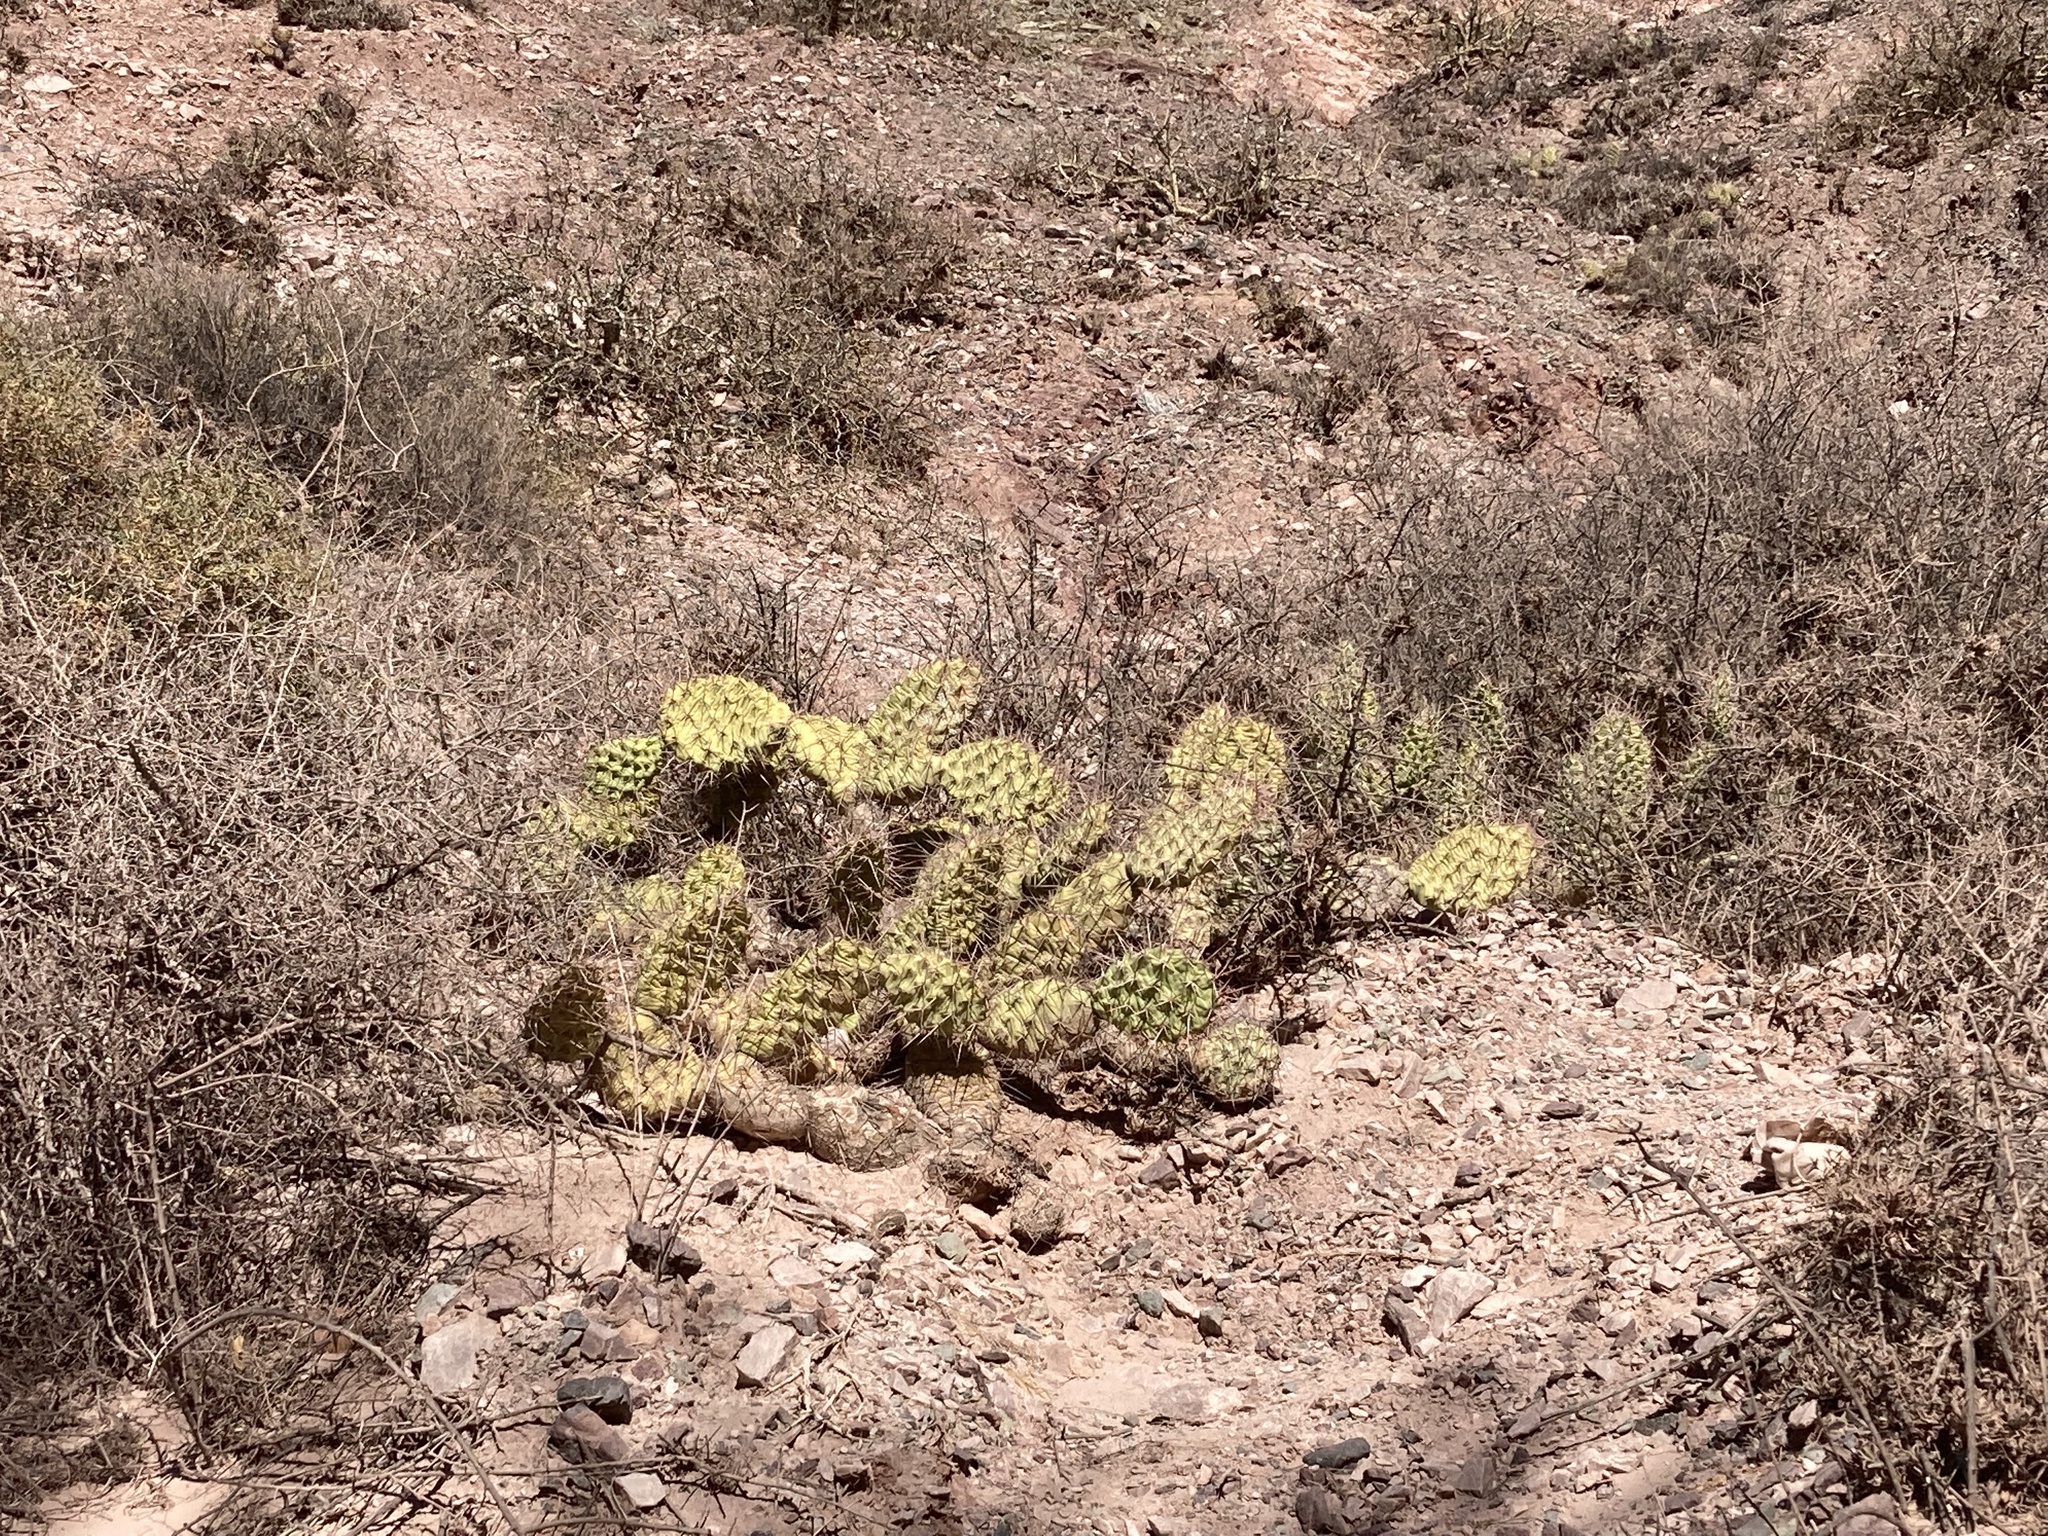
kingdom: Plantae
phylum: Tracheophyta
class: Magnoliopsida
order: Caryophyllales
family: Cactaceae
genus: Opuntia
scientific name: Opuntia sulphurea
